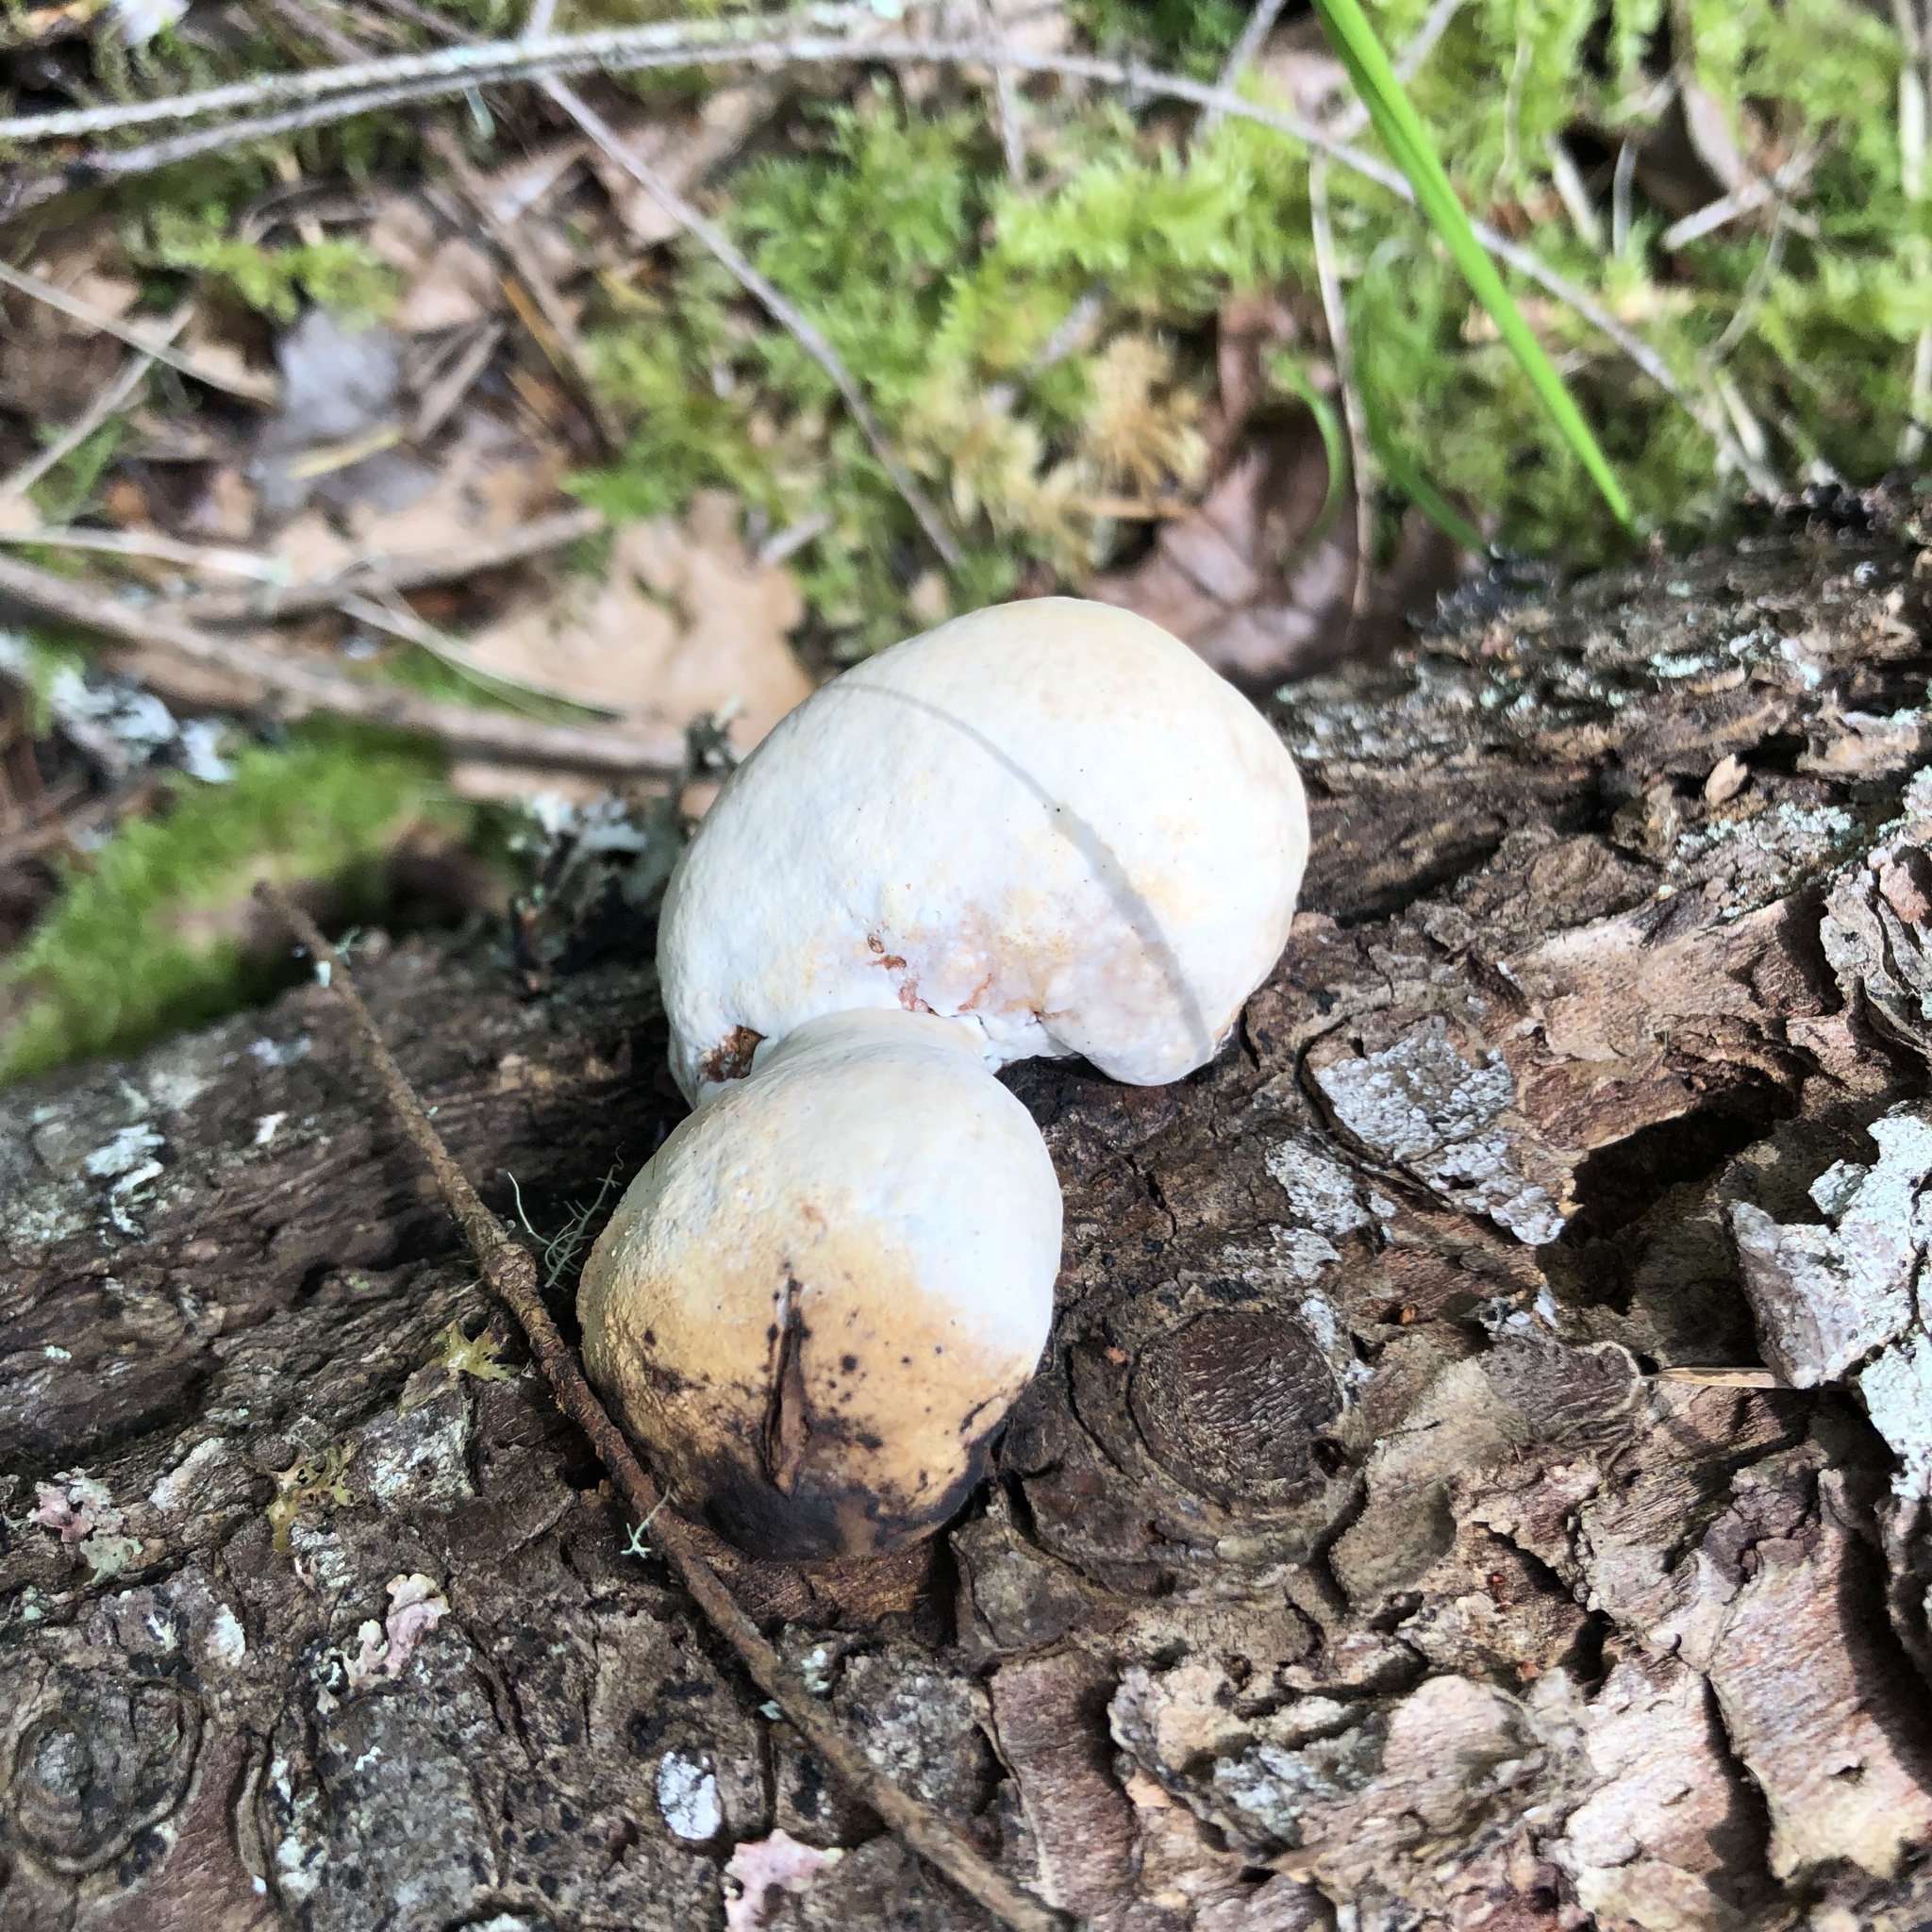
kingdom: Fungi
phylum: Basidiomycota
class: Agaricomycetes
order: Polyporales
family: Fomitopsidaceae
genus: Fomitopsis
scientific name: Fomitopsis mounceae
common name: Northern red belt
